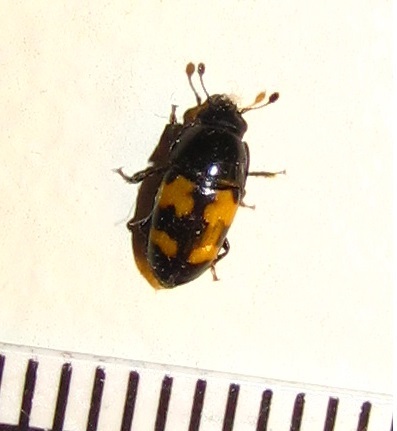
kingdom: Animalia
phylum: Arthropoda
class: Insecta
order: Coleoptera
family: Nitidulidae
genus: Glischrochilus
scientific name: Glischrochilus fasciatus
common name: Picnic beetle
